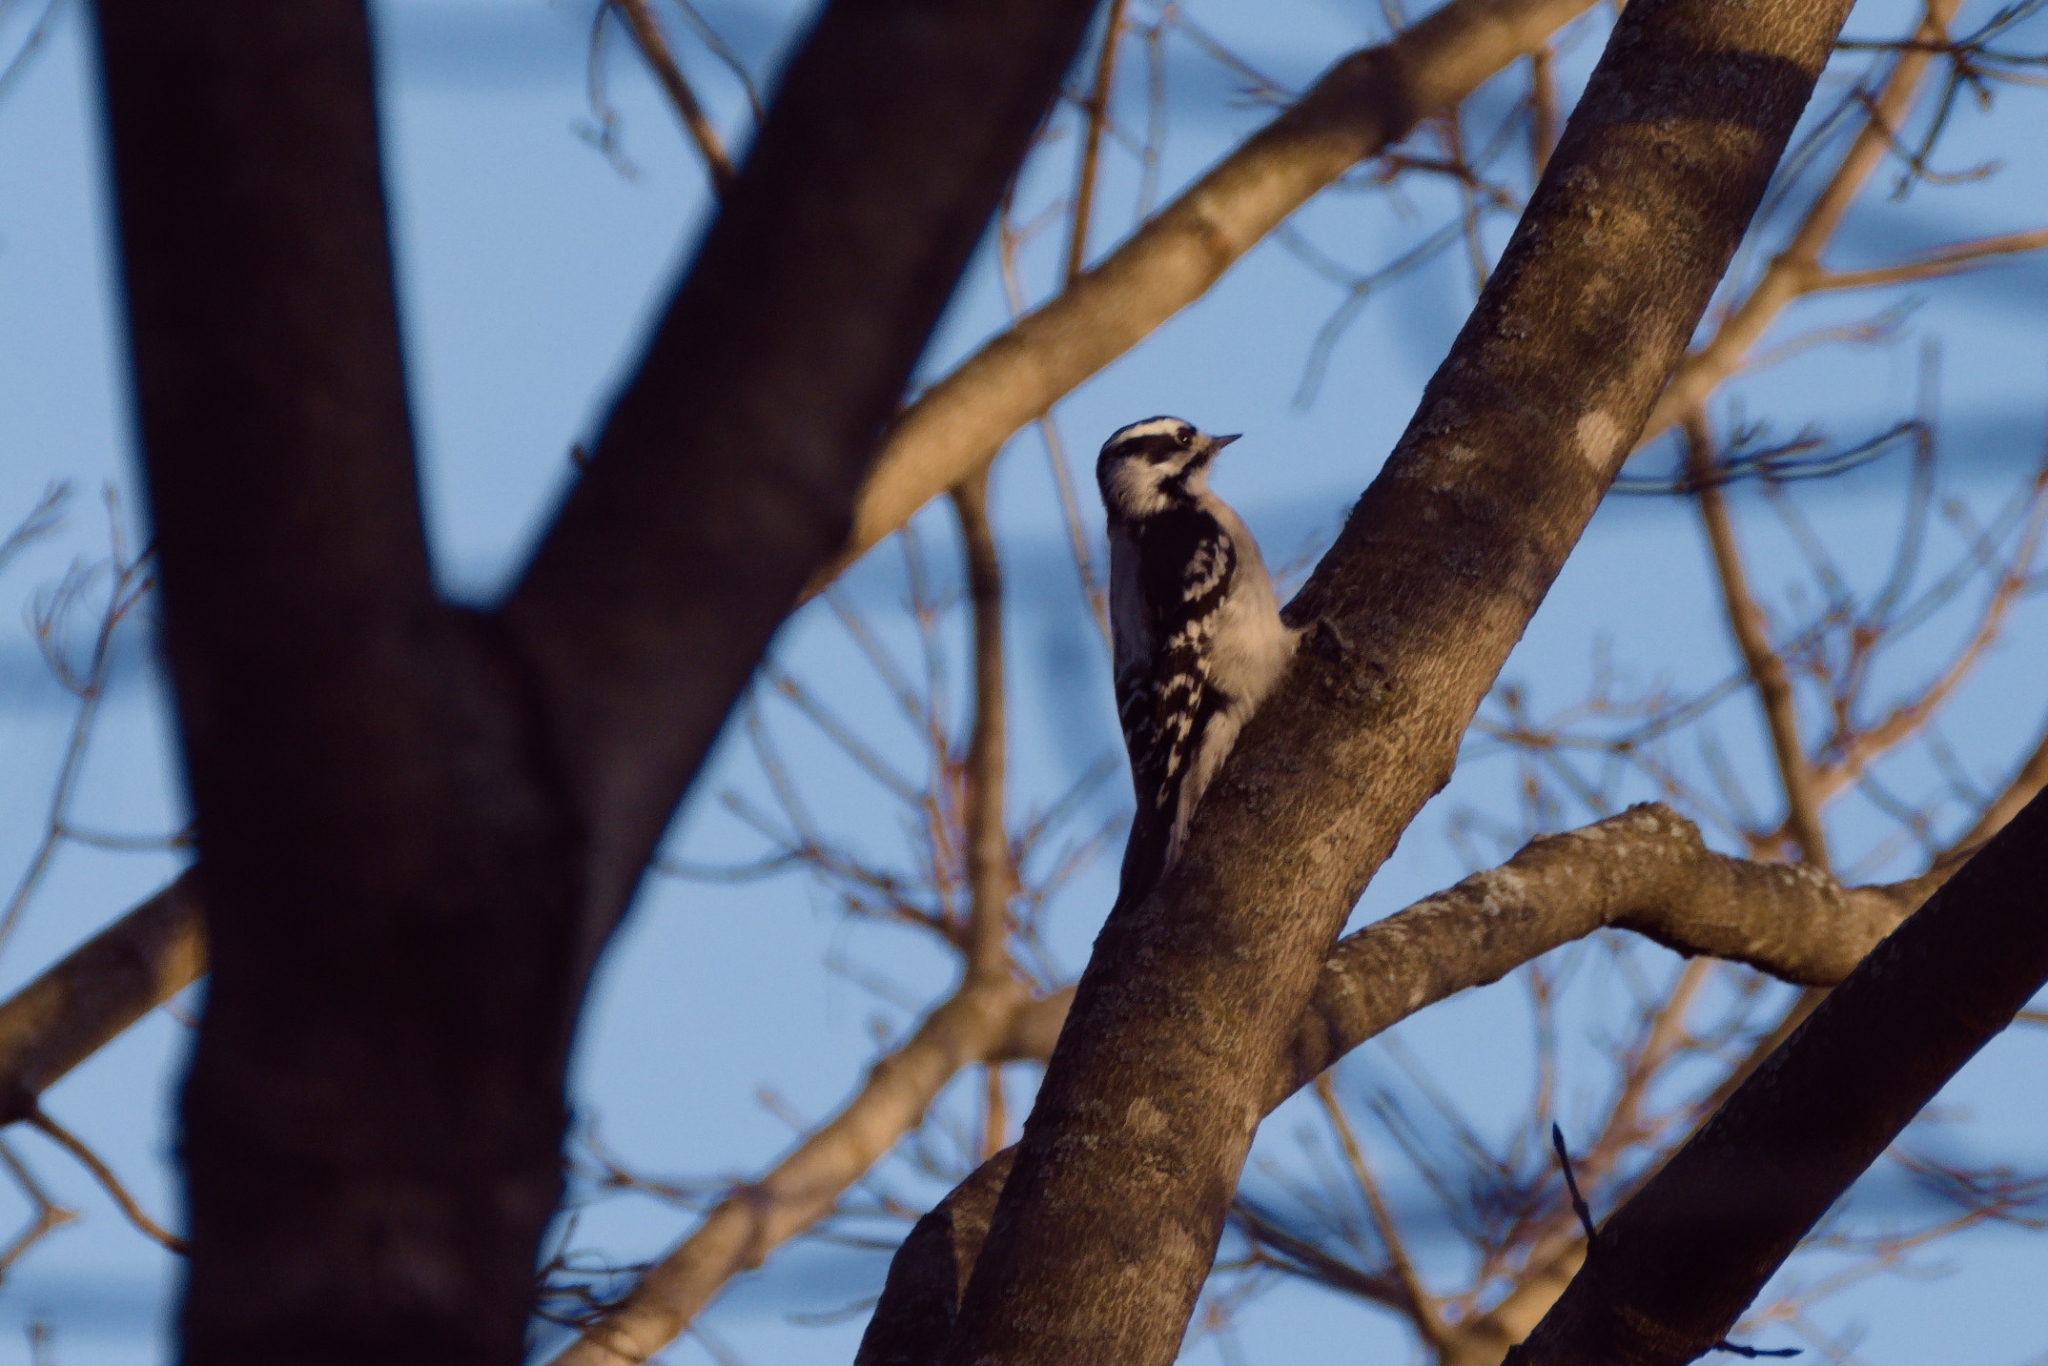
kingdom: Animalia
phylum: Chordata
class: Aves
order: Piciformes
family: Picidae
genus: Dryobates
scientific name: Dryobates pubescens
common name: Downy woodpecker
